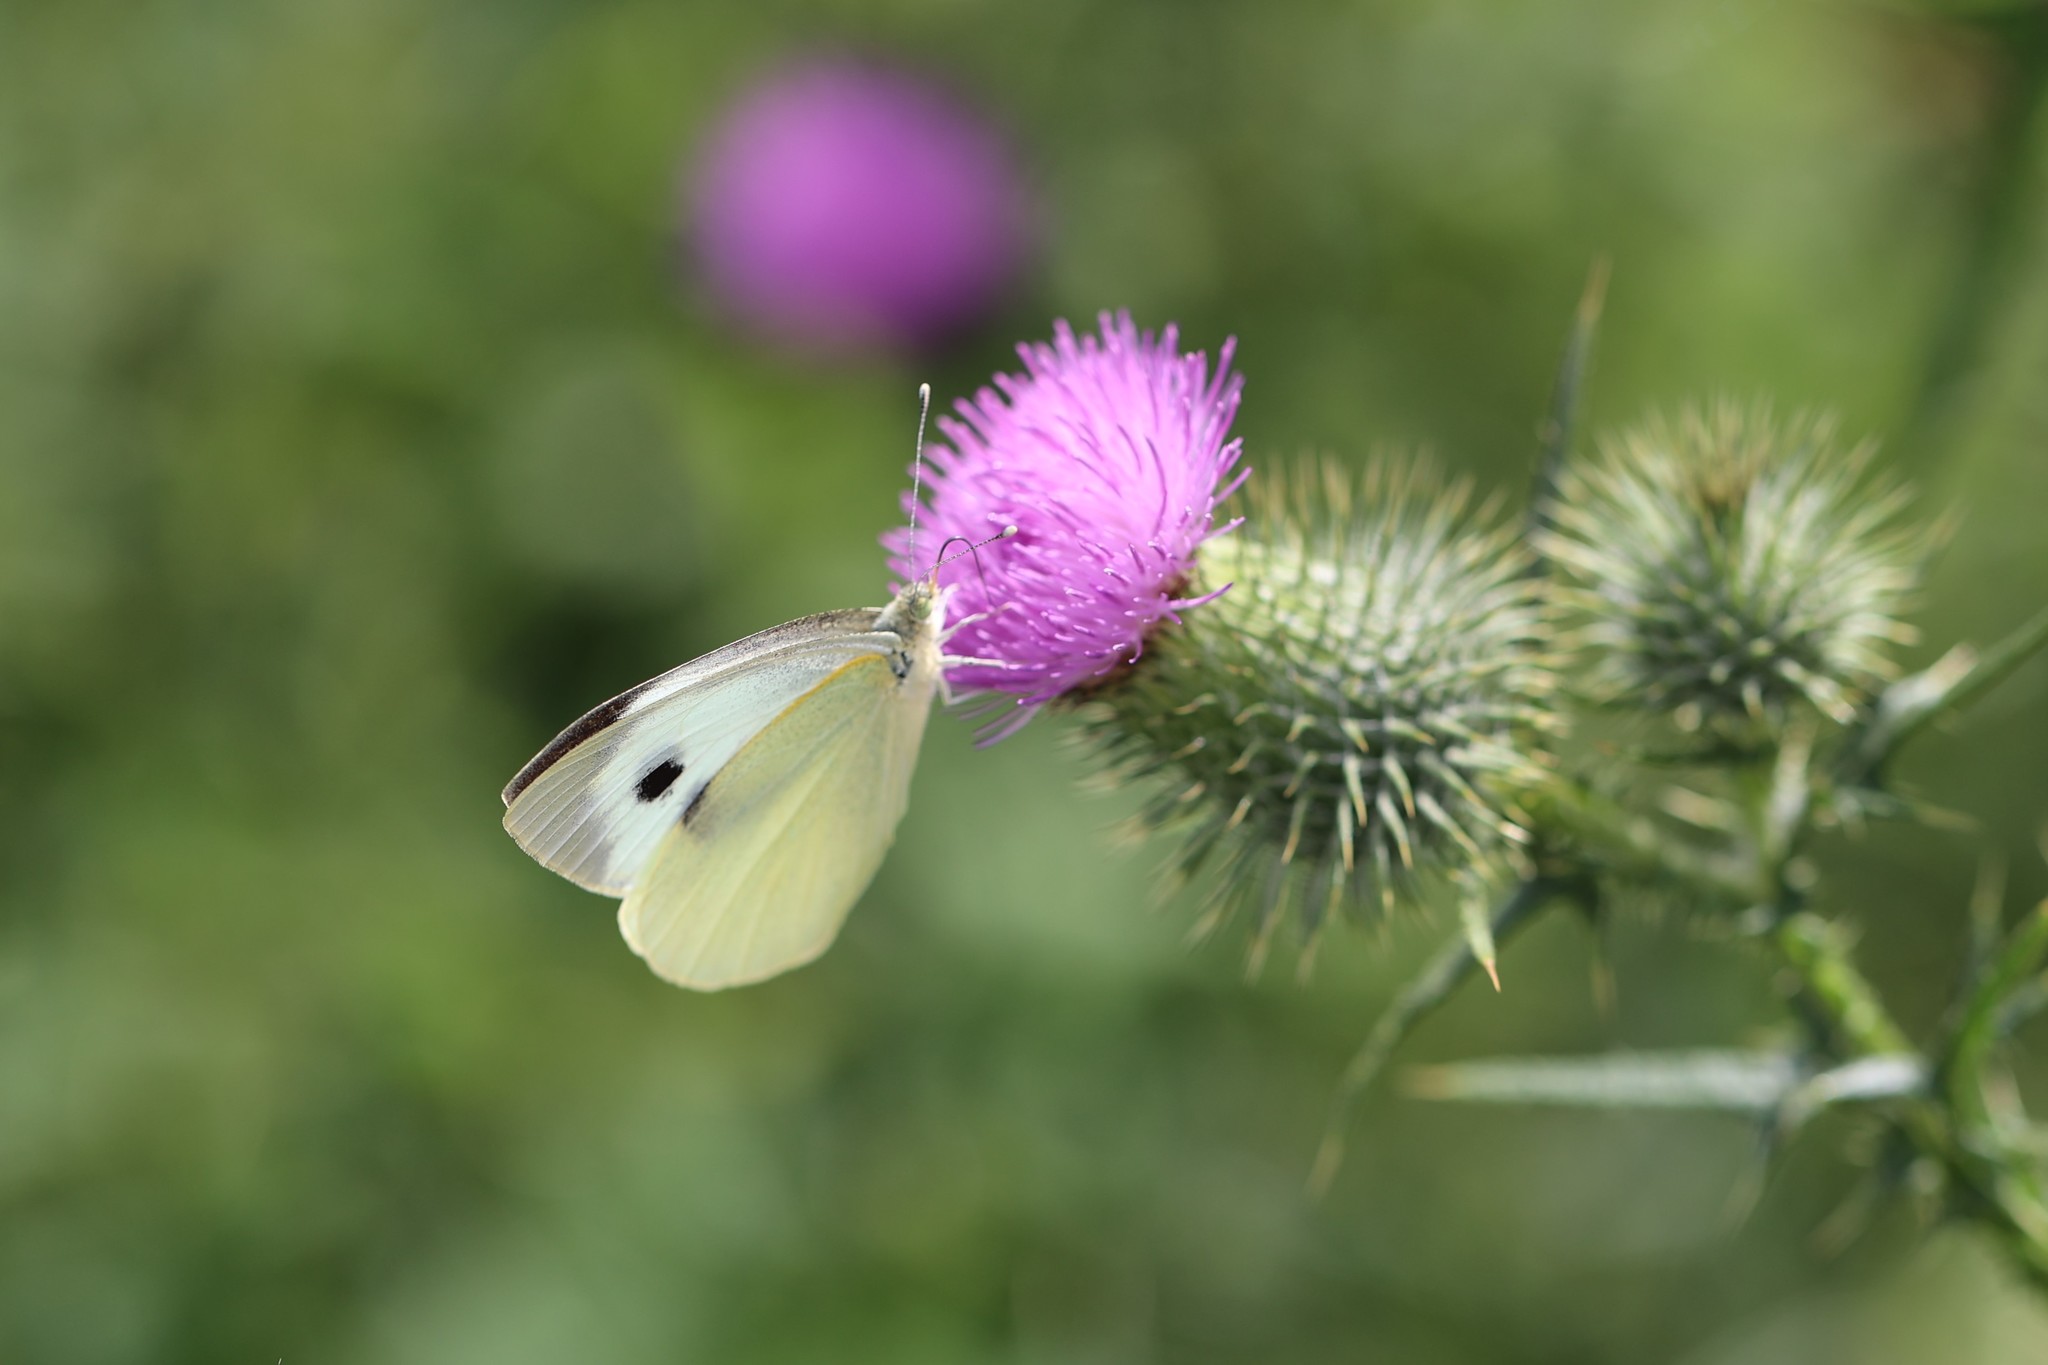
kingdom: Animalia
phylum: Arthropoda
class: Insecta
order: Lepidoptera
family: Pieridae
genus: Pieris
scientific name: Pieris brassicae
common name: Large white
